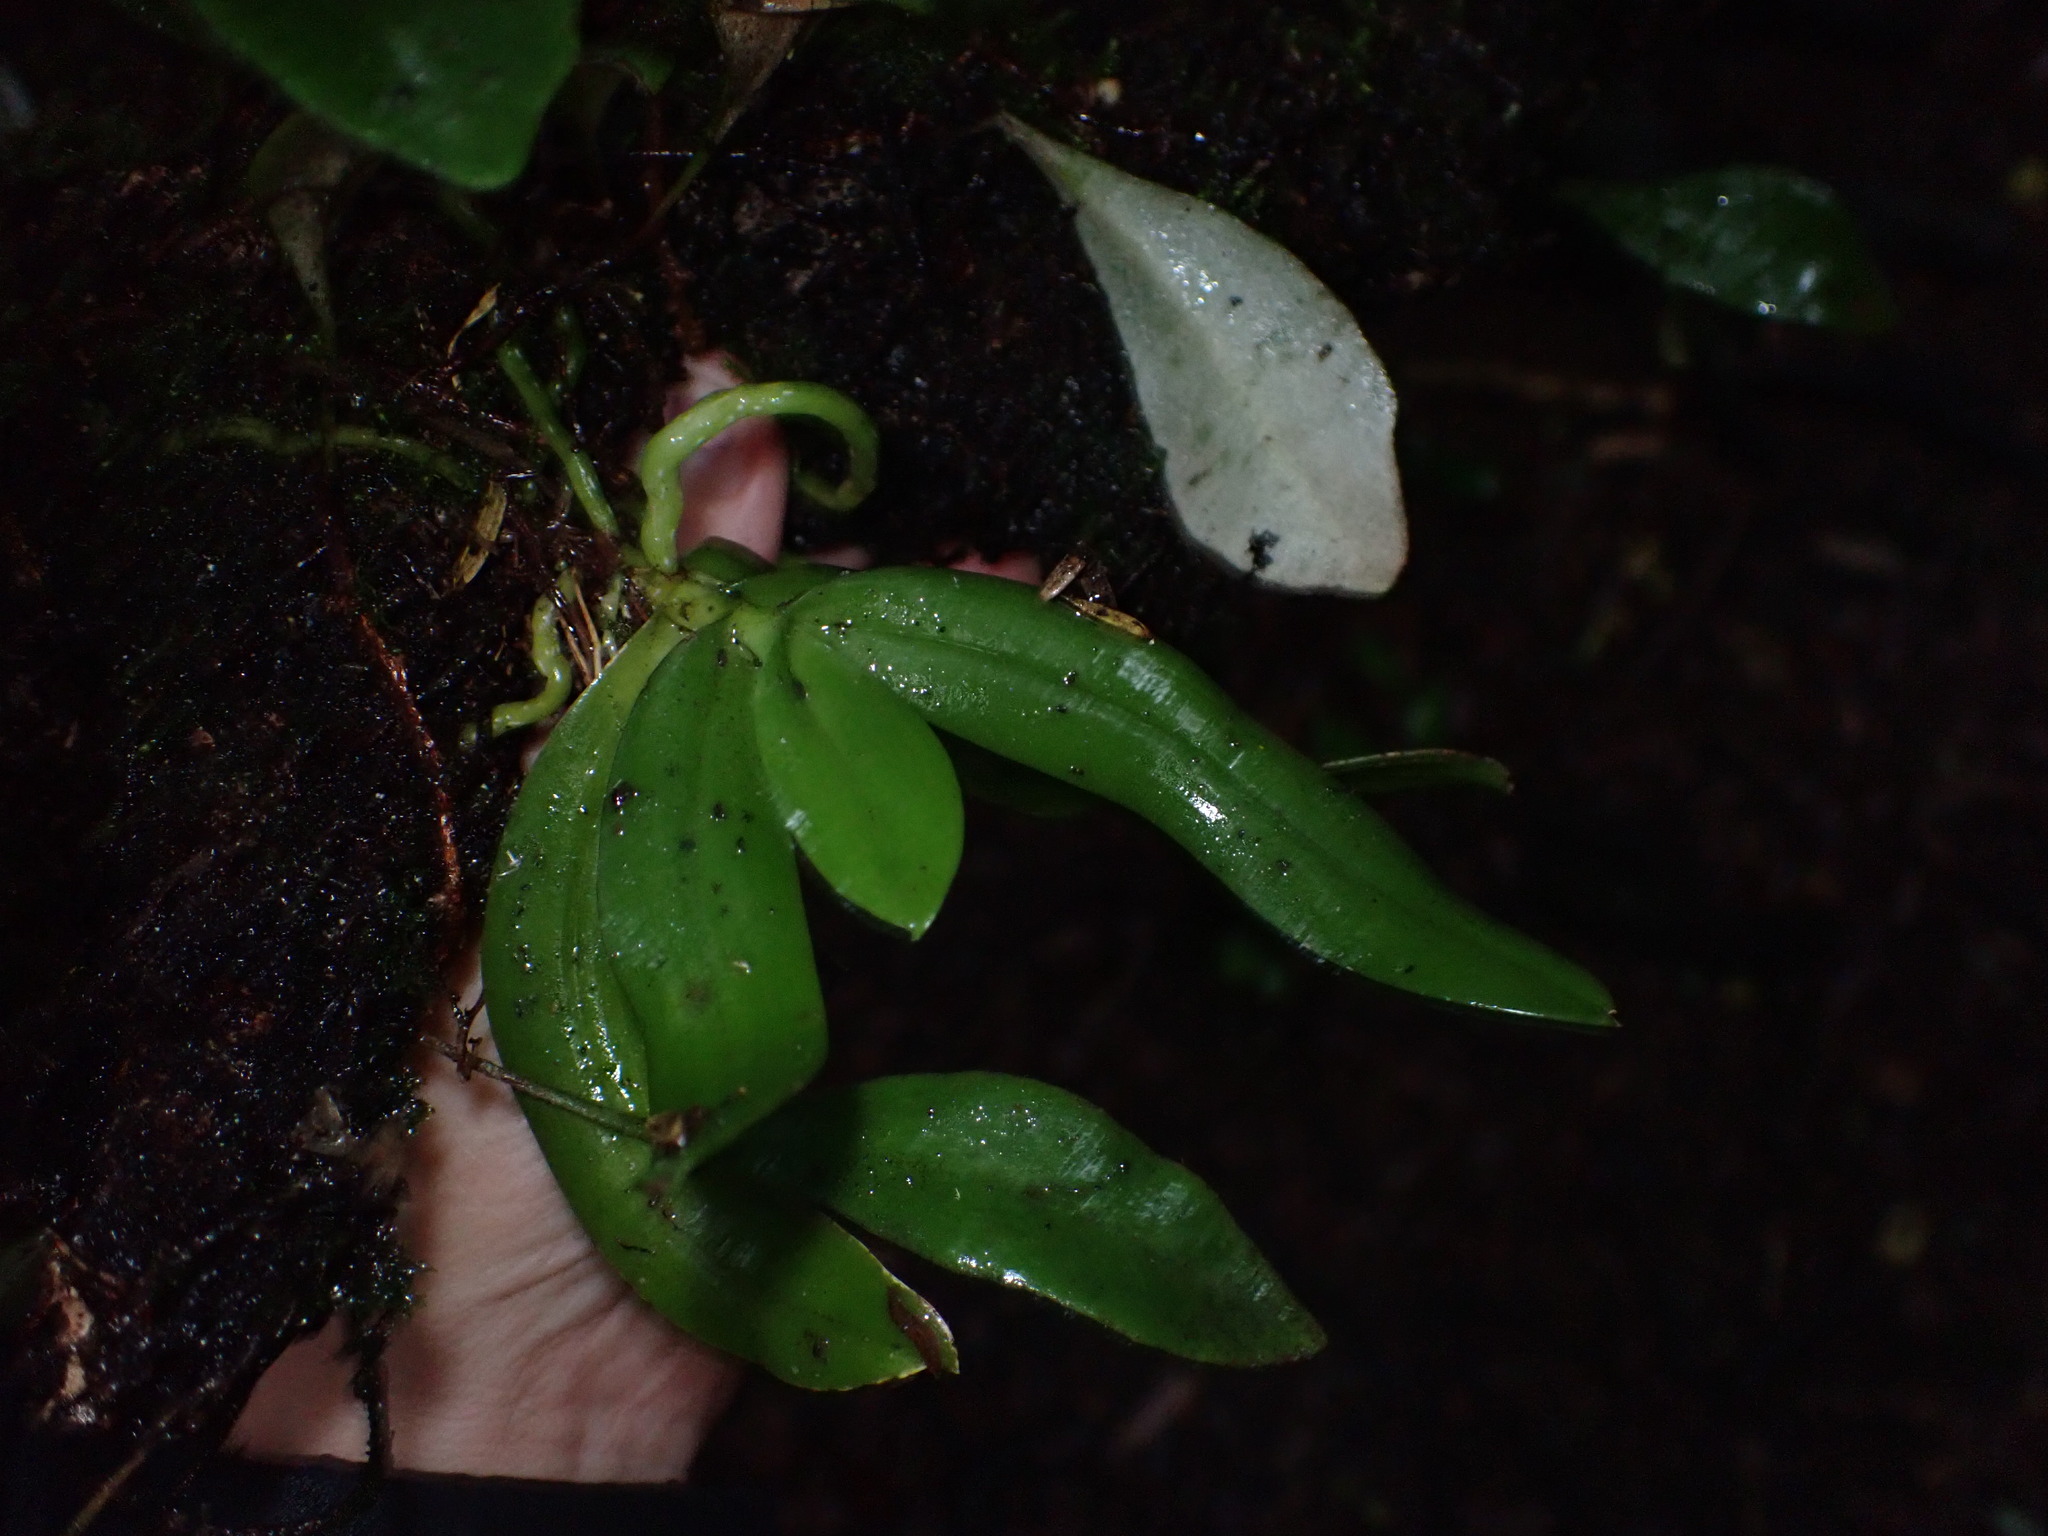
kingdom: Plantae
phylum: Tracheophyta
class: Liliopsida
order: Asparagales
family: Orchidaceae
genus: Drymoanthus
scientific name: Drymoanthus adversus
